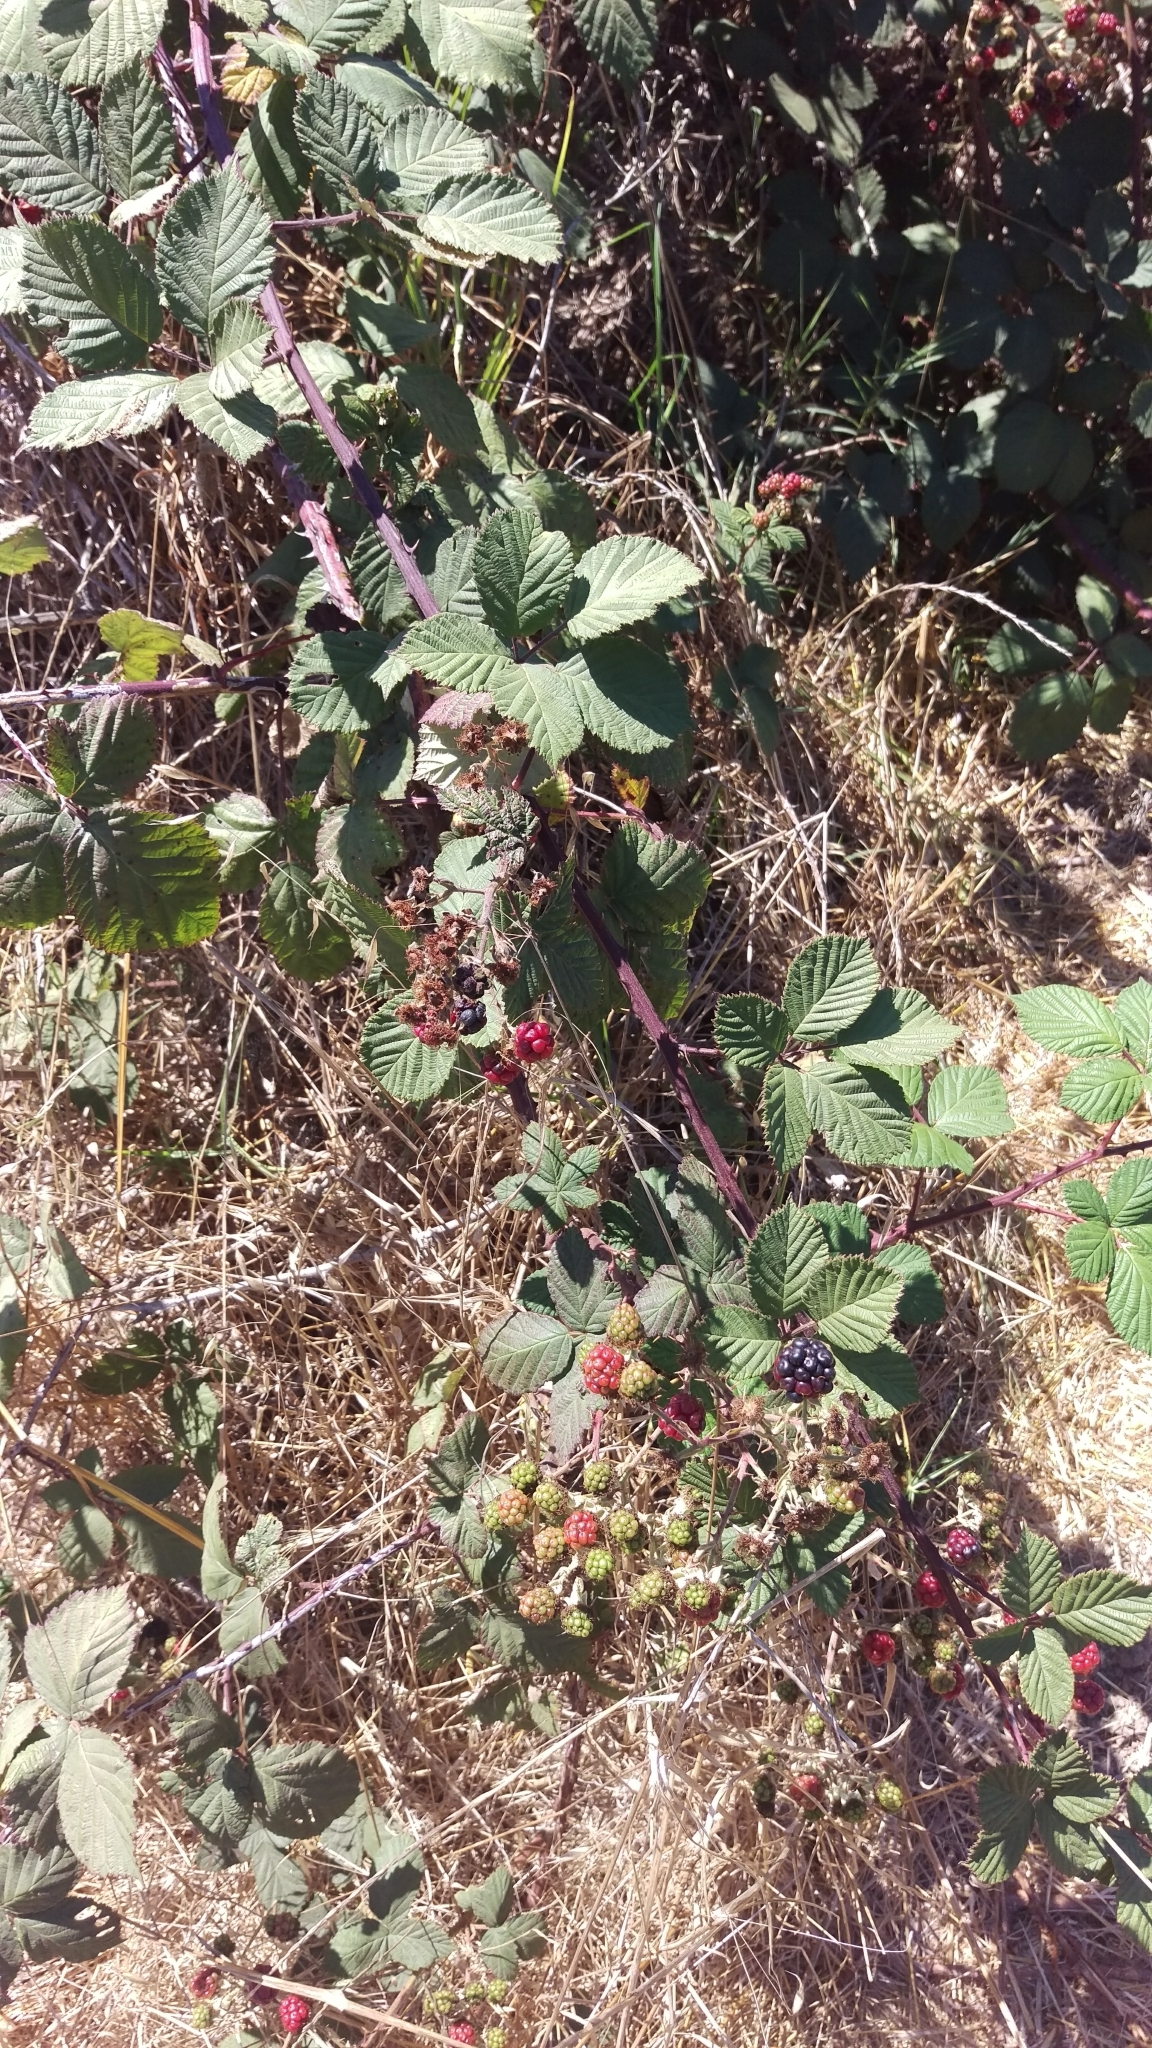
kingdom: Plantae
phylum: Tracheophyta
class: Magnoliopsida
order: Rosales
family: Rosaceae
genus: Rubus
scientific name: Rubus armeniacus
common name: Himalayan blackberry
